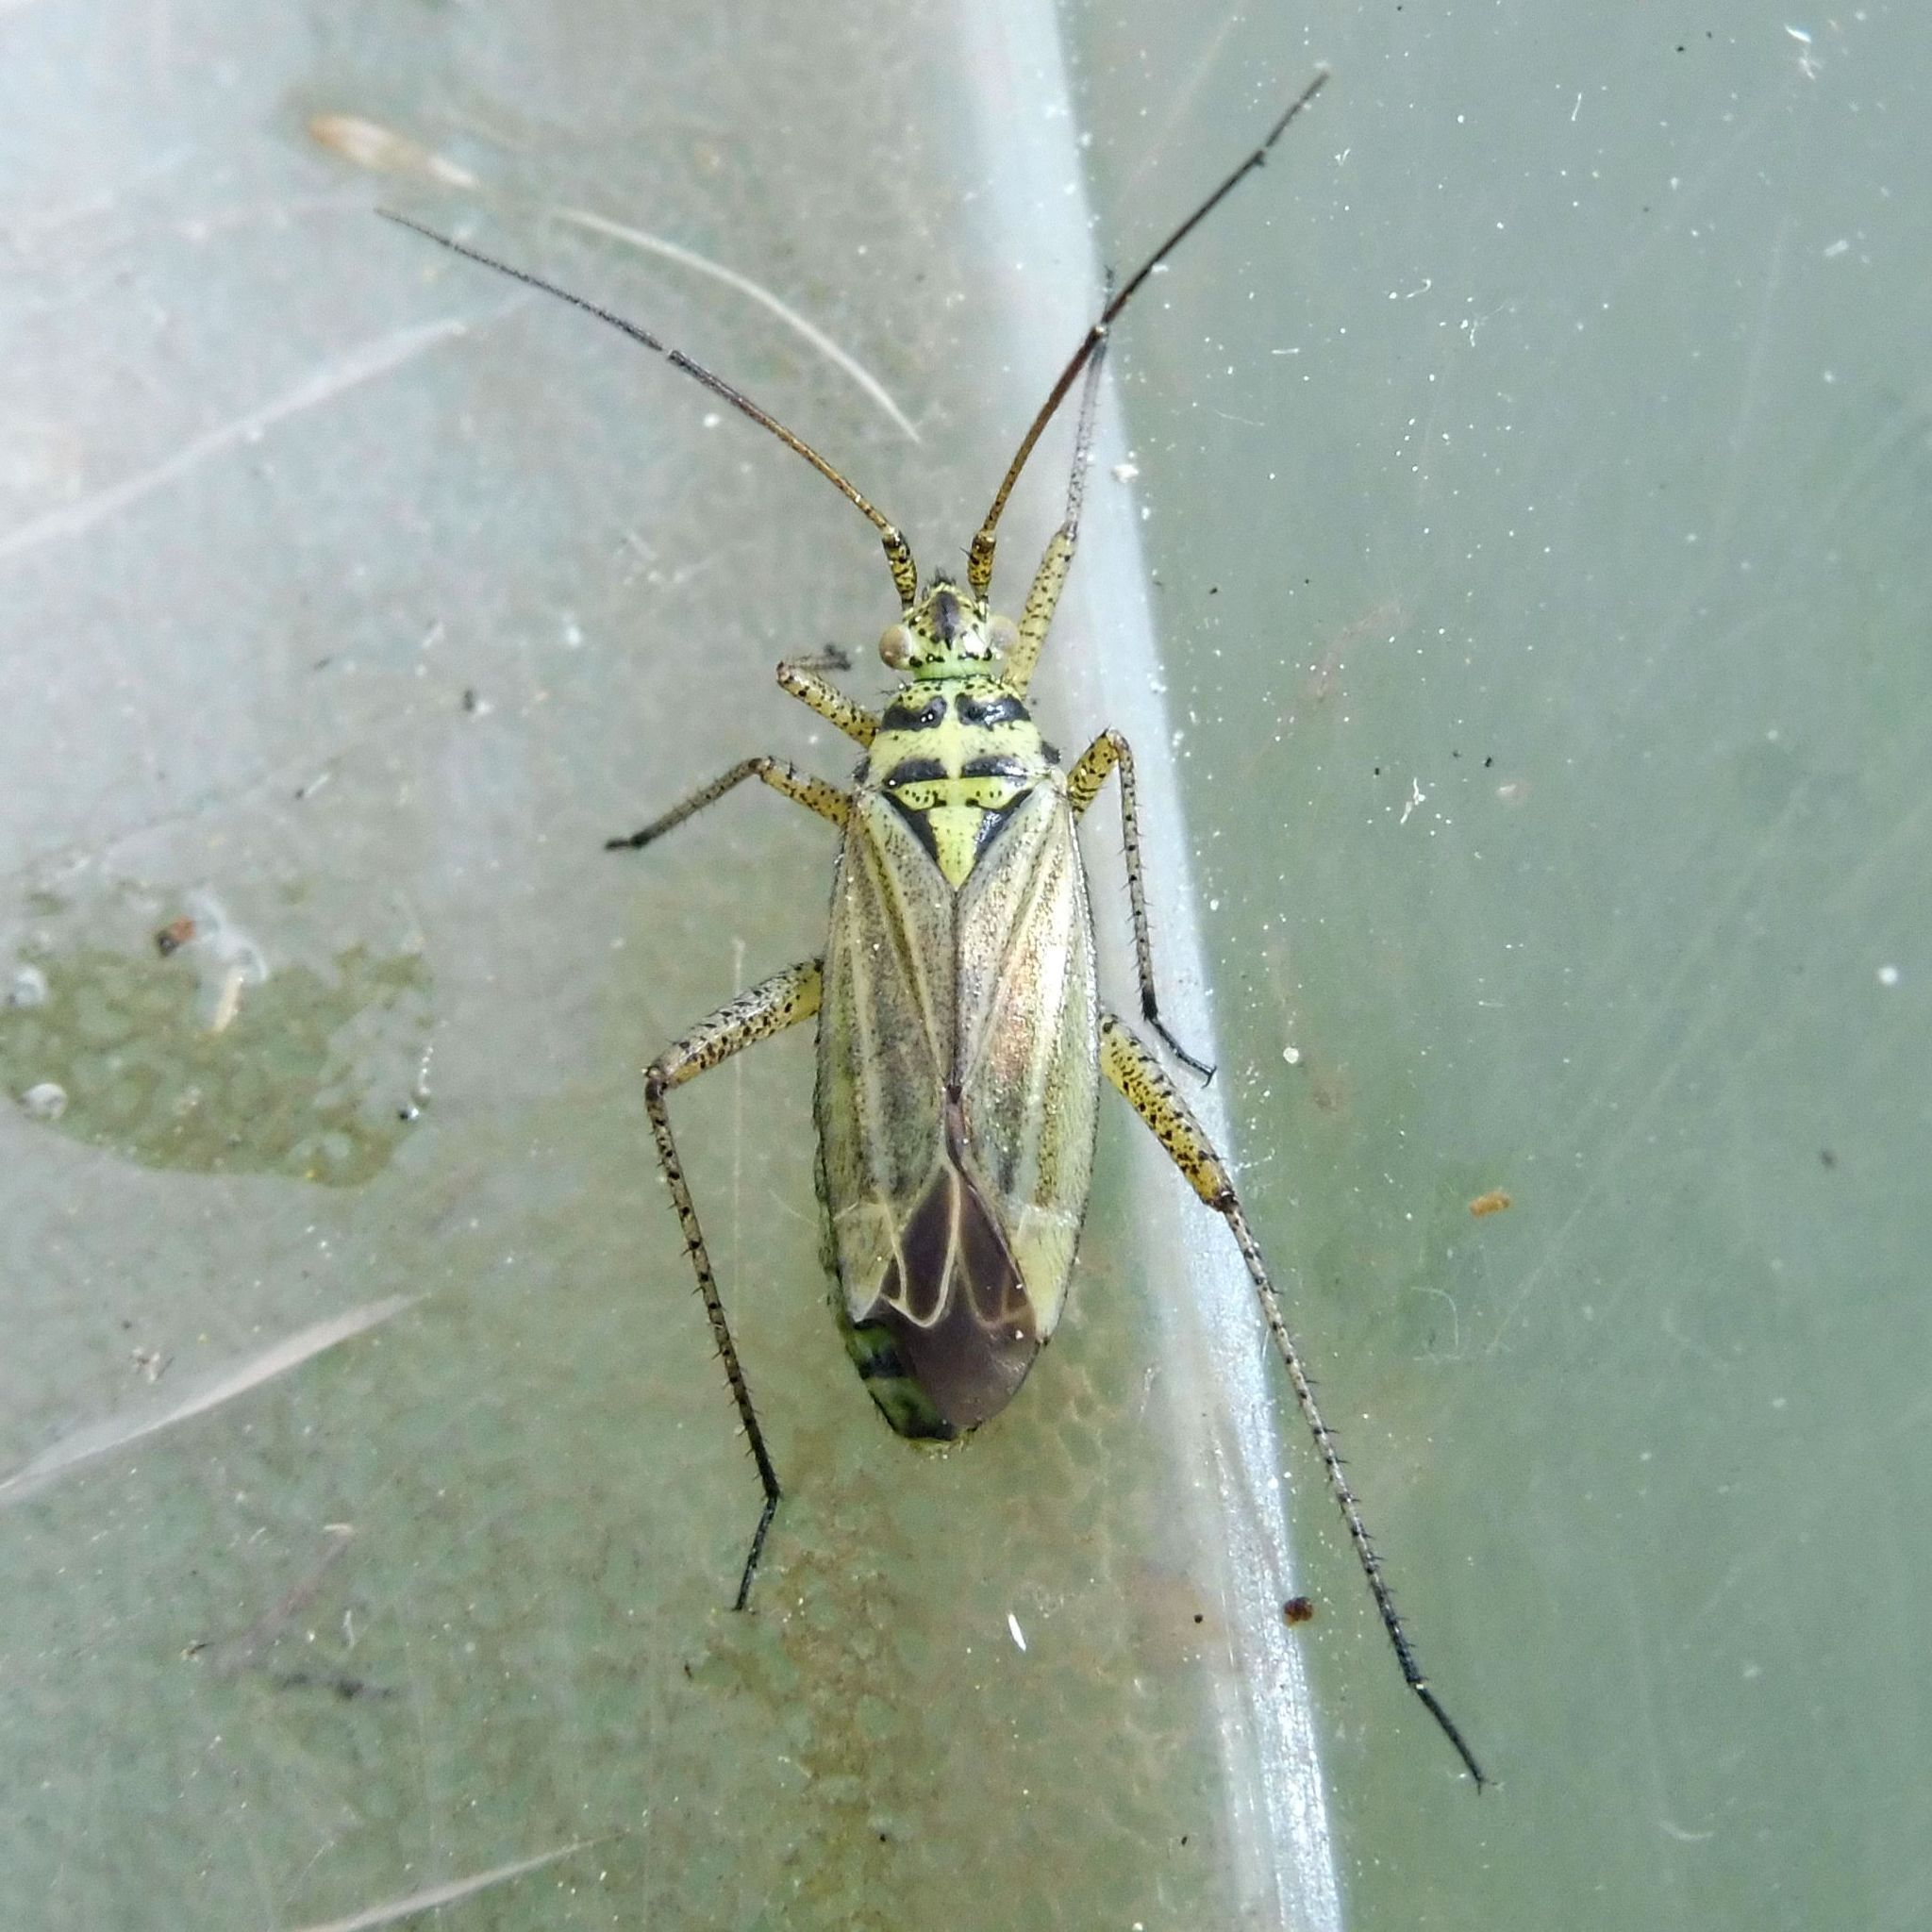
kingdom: Animalia
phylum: Arthropoda
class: Insecta
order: Hemiptera
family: Miridae
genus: Oncotylus
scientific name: Oncotylus viridiflavus
